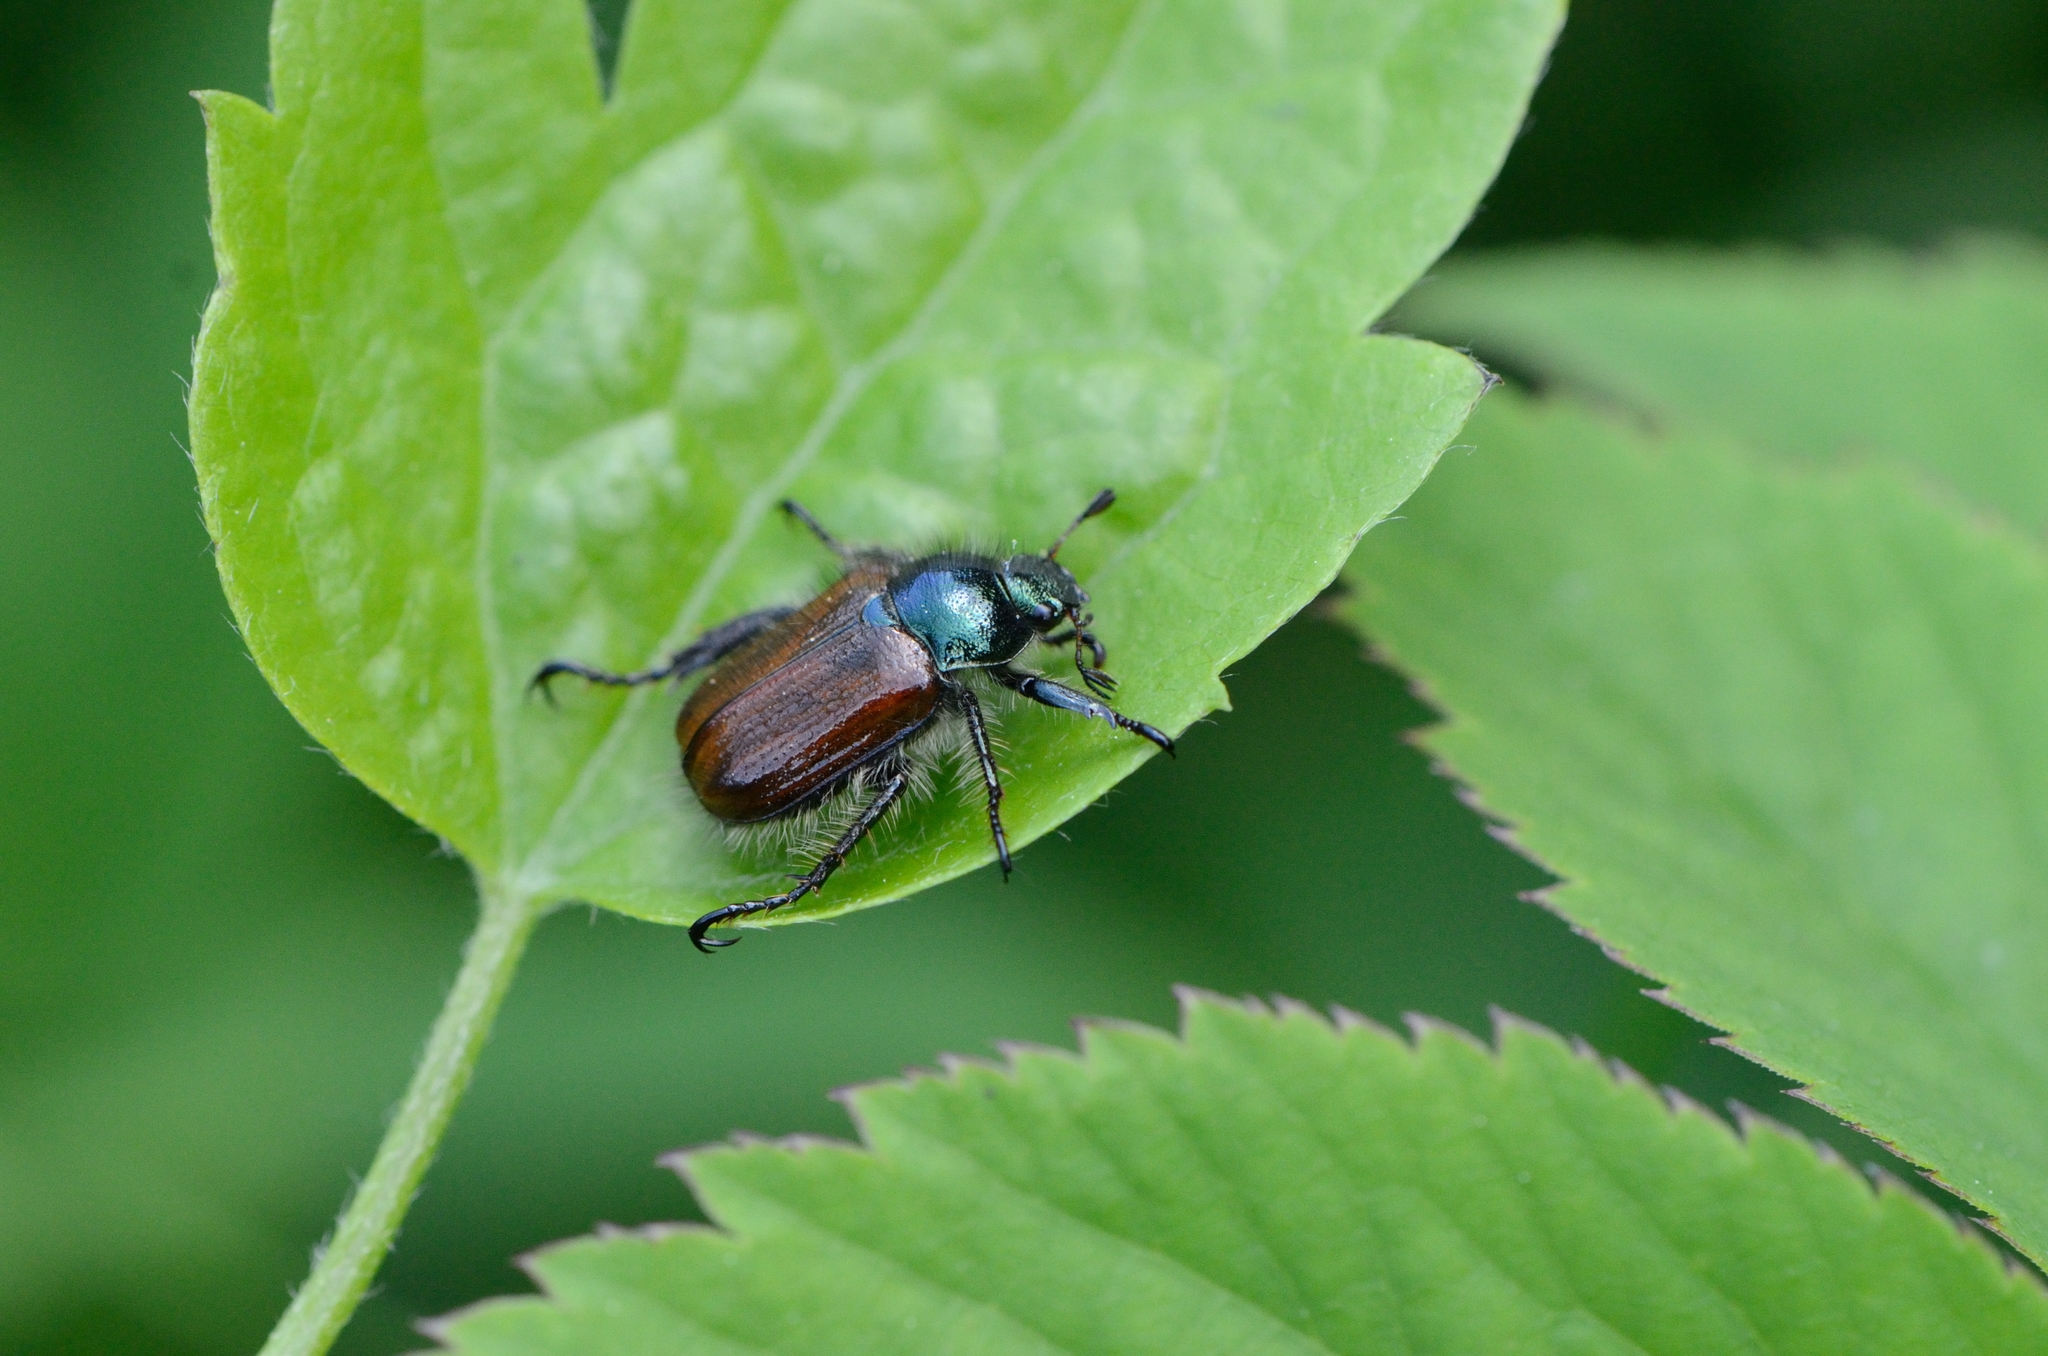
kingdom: Animalia
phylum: Arthropoda
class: Insecta
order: Coleoptera
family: Scarabaeidae
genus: Phyllopertha
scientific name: Phyllopertha horticola
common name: Garden chafer
